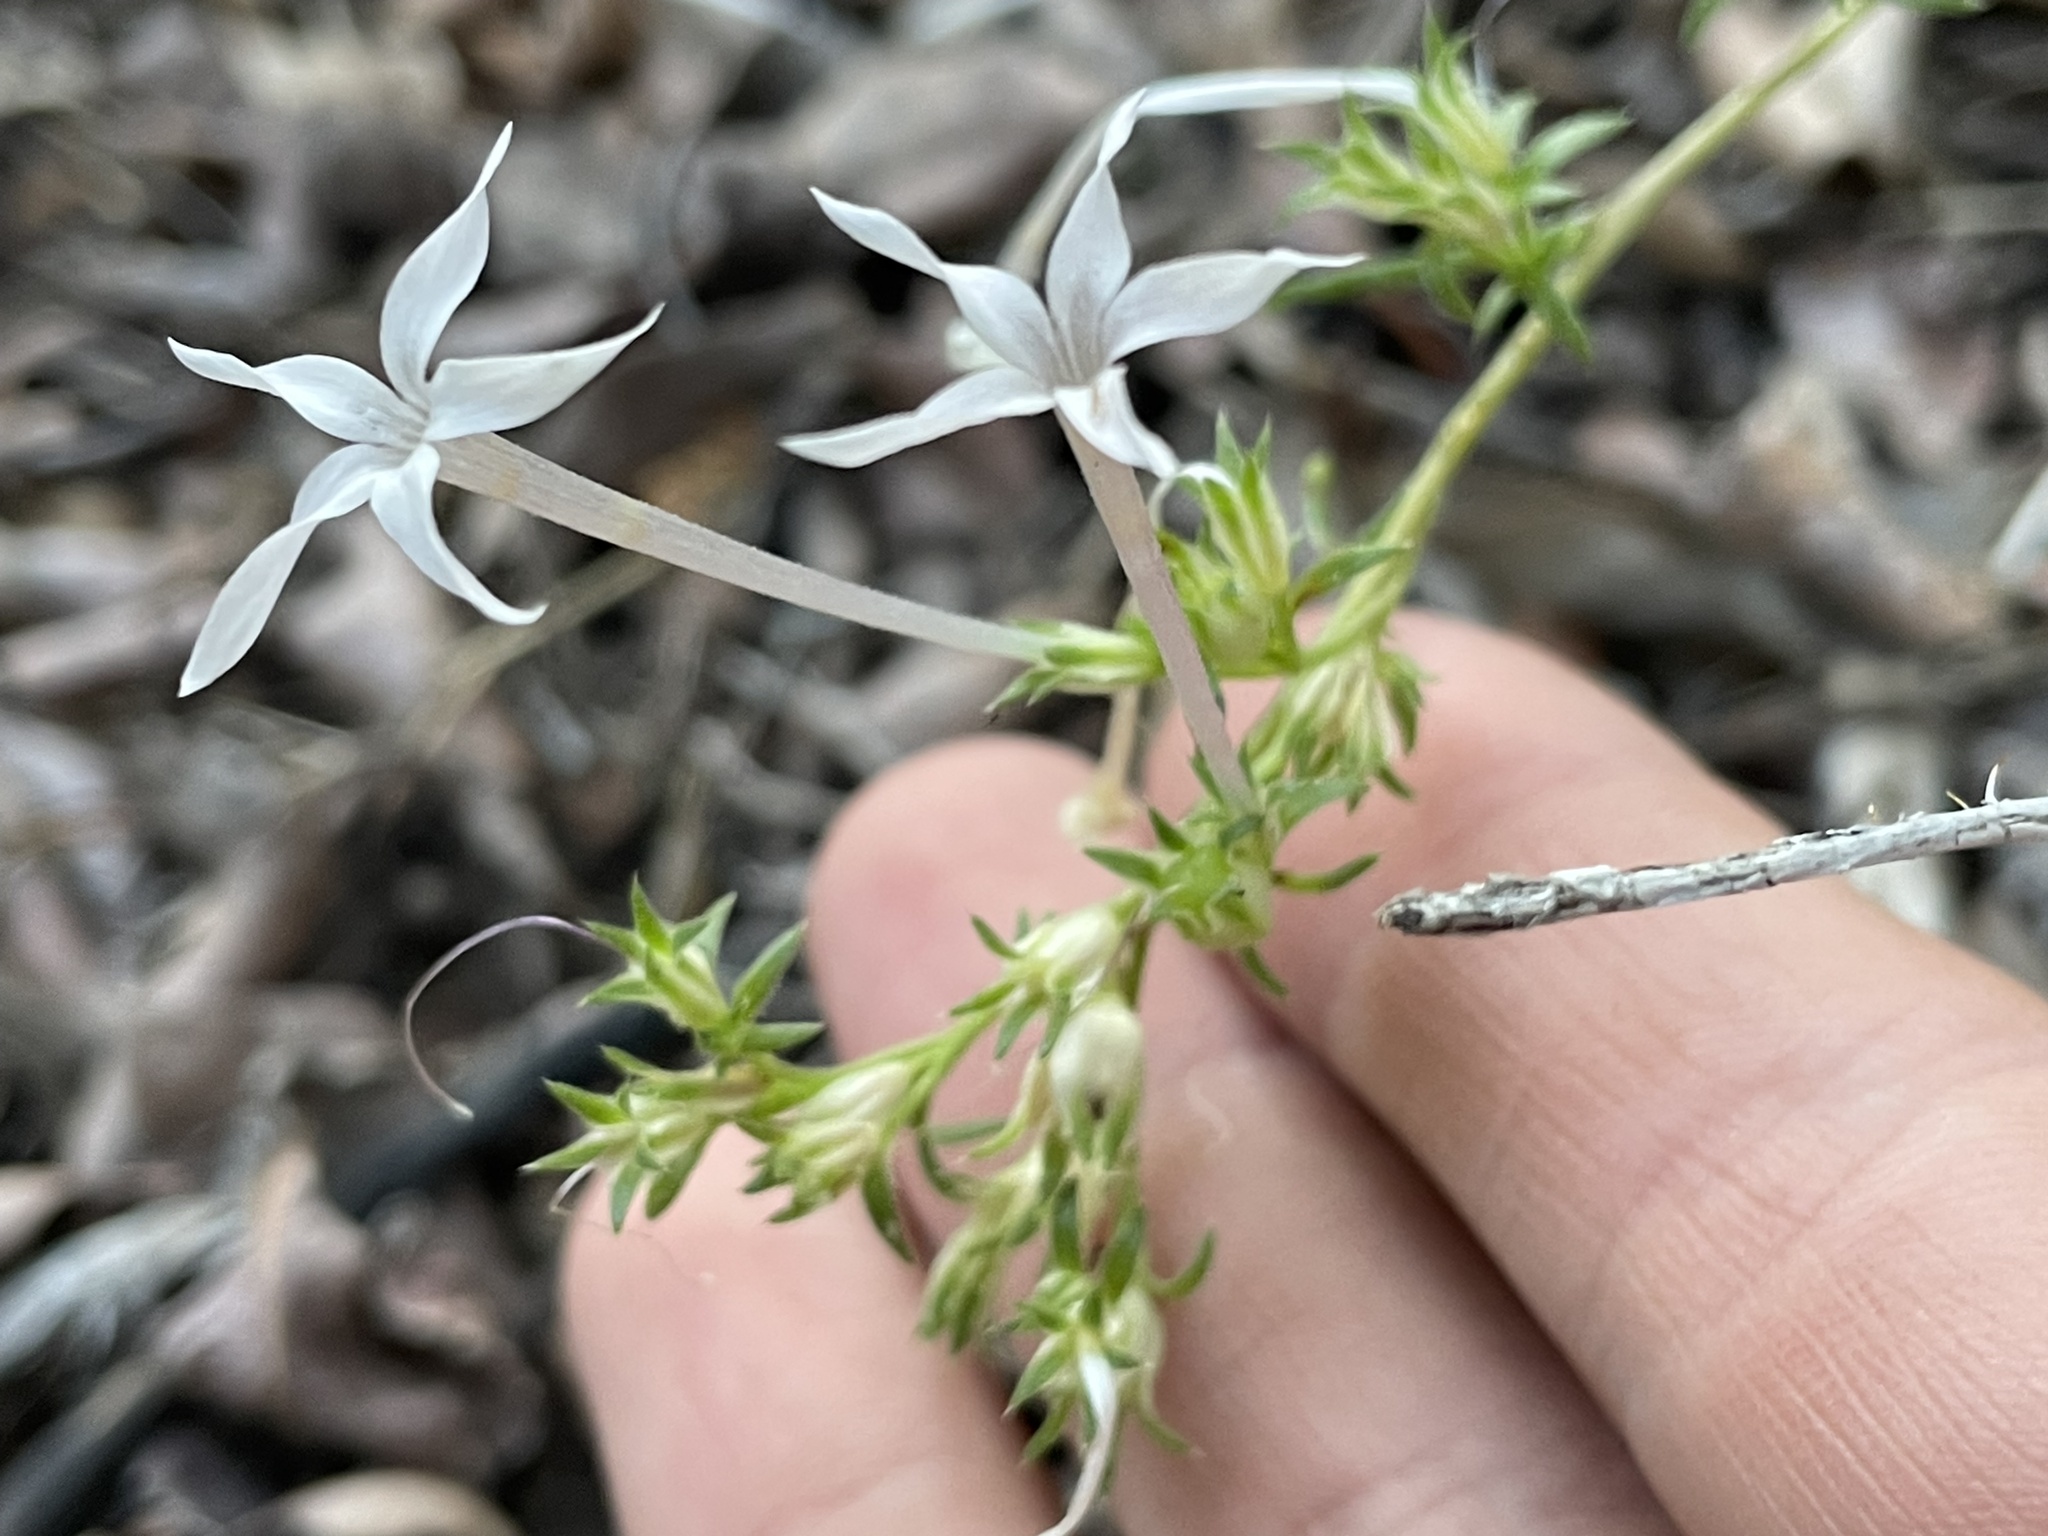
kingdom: Plantae
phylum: Tracheophyta
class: Magnoliopsida
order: Ericales
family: Polemoniaceae
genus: Ipomopsis
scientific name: Ipomopsis tenuituba
